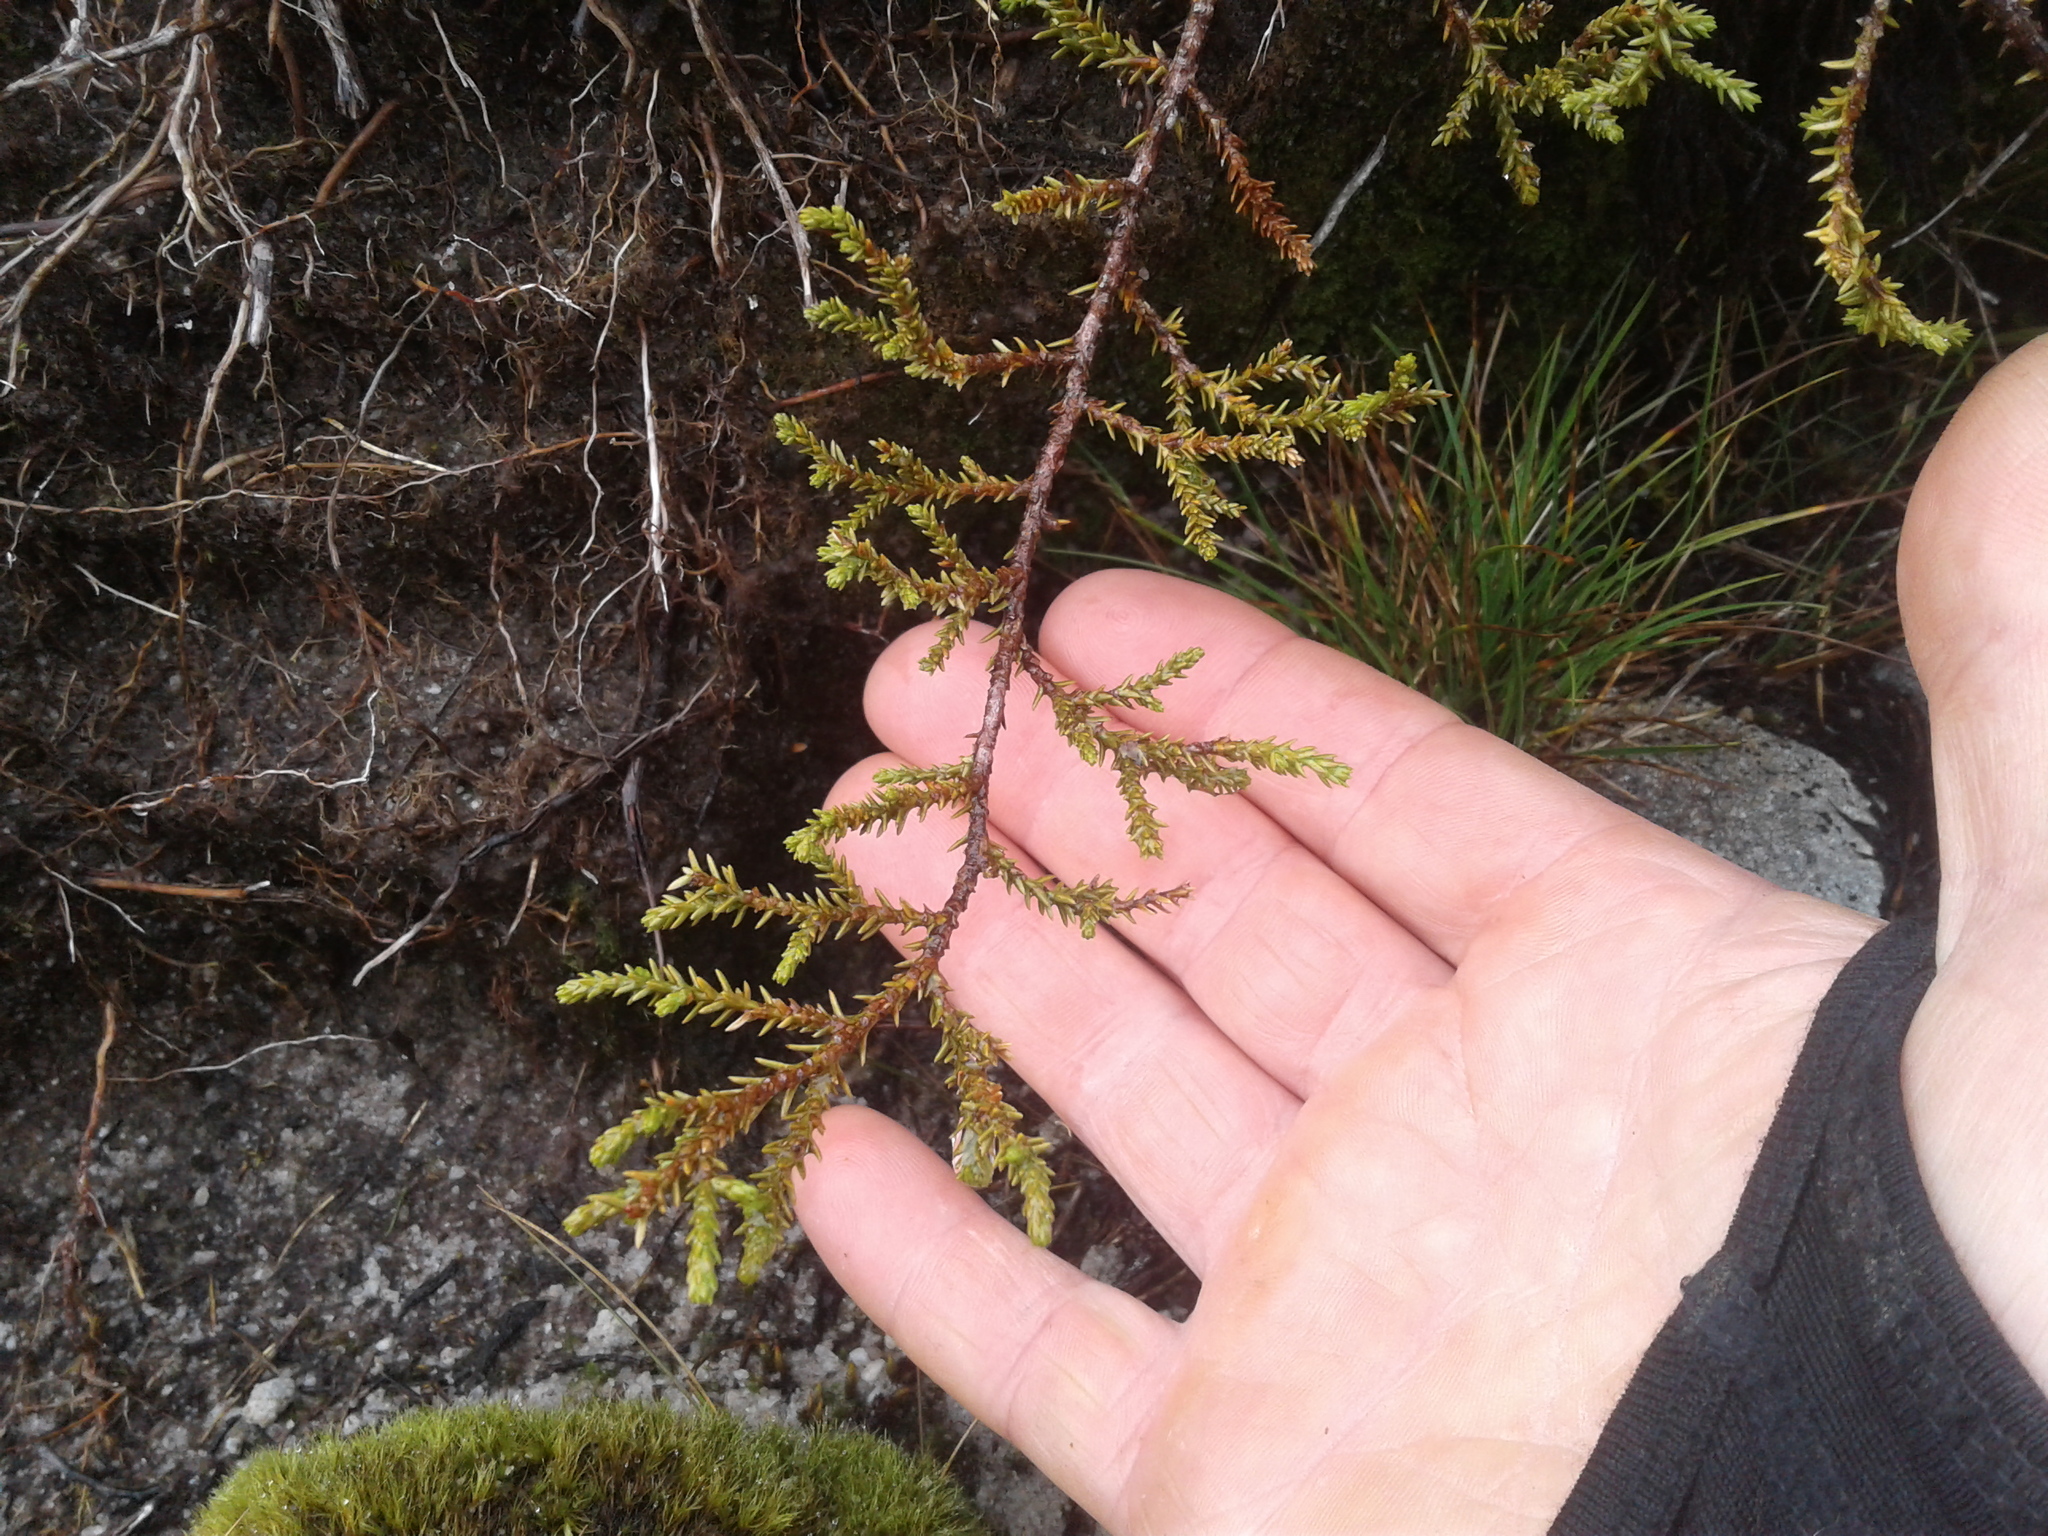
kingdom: Plantae
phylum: Tracheophyta
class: Pinopsida
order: Pinales
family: Podocarpaceae
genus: Lepidothamnus
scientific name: Lepidothamnus laxifolius
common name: Pygmy pine
